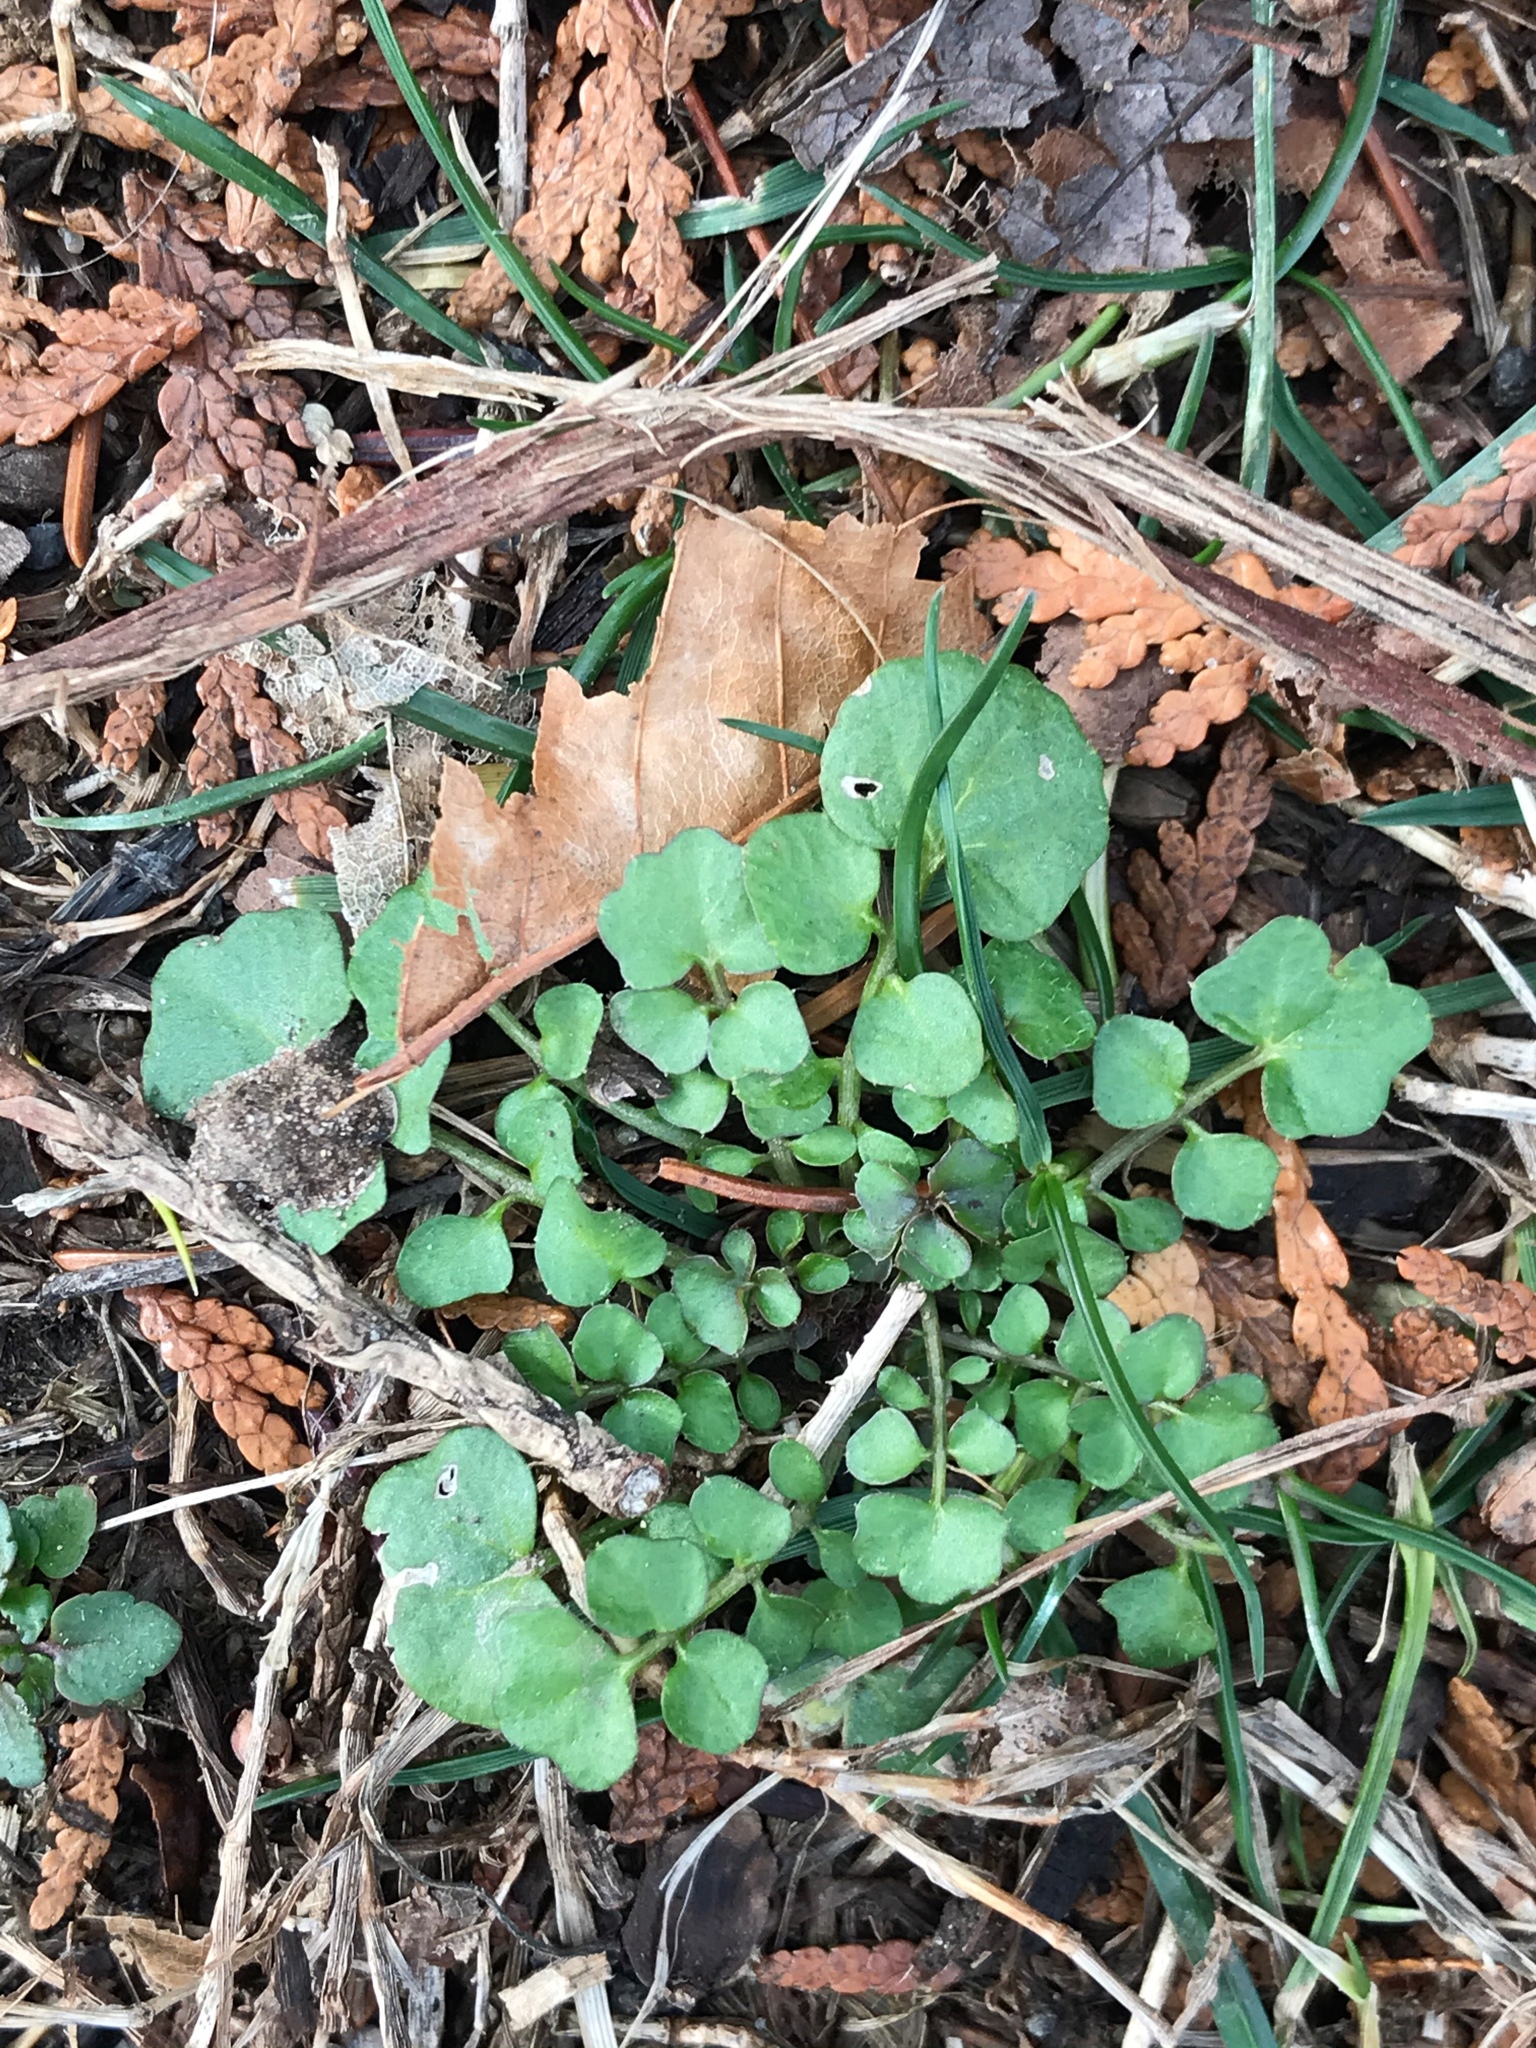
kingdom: Plantae
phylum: Tracheophyta
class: Magnoliopsida
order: Brassicales
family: Brassicaceae
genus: Cardamine
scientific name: Cardamine hirsuta
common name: Hairy bittercress
